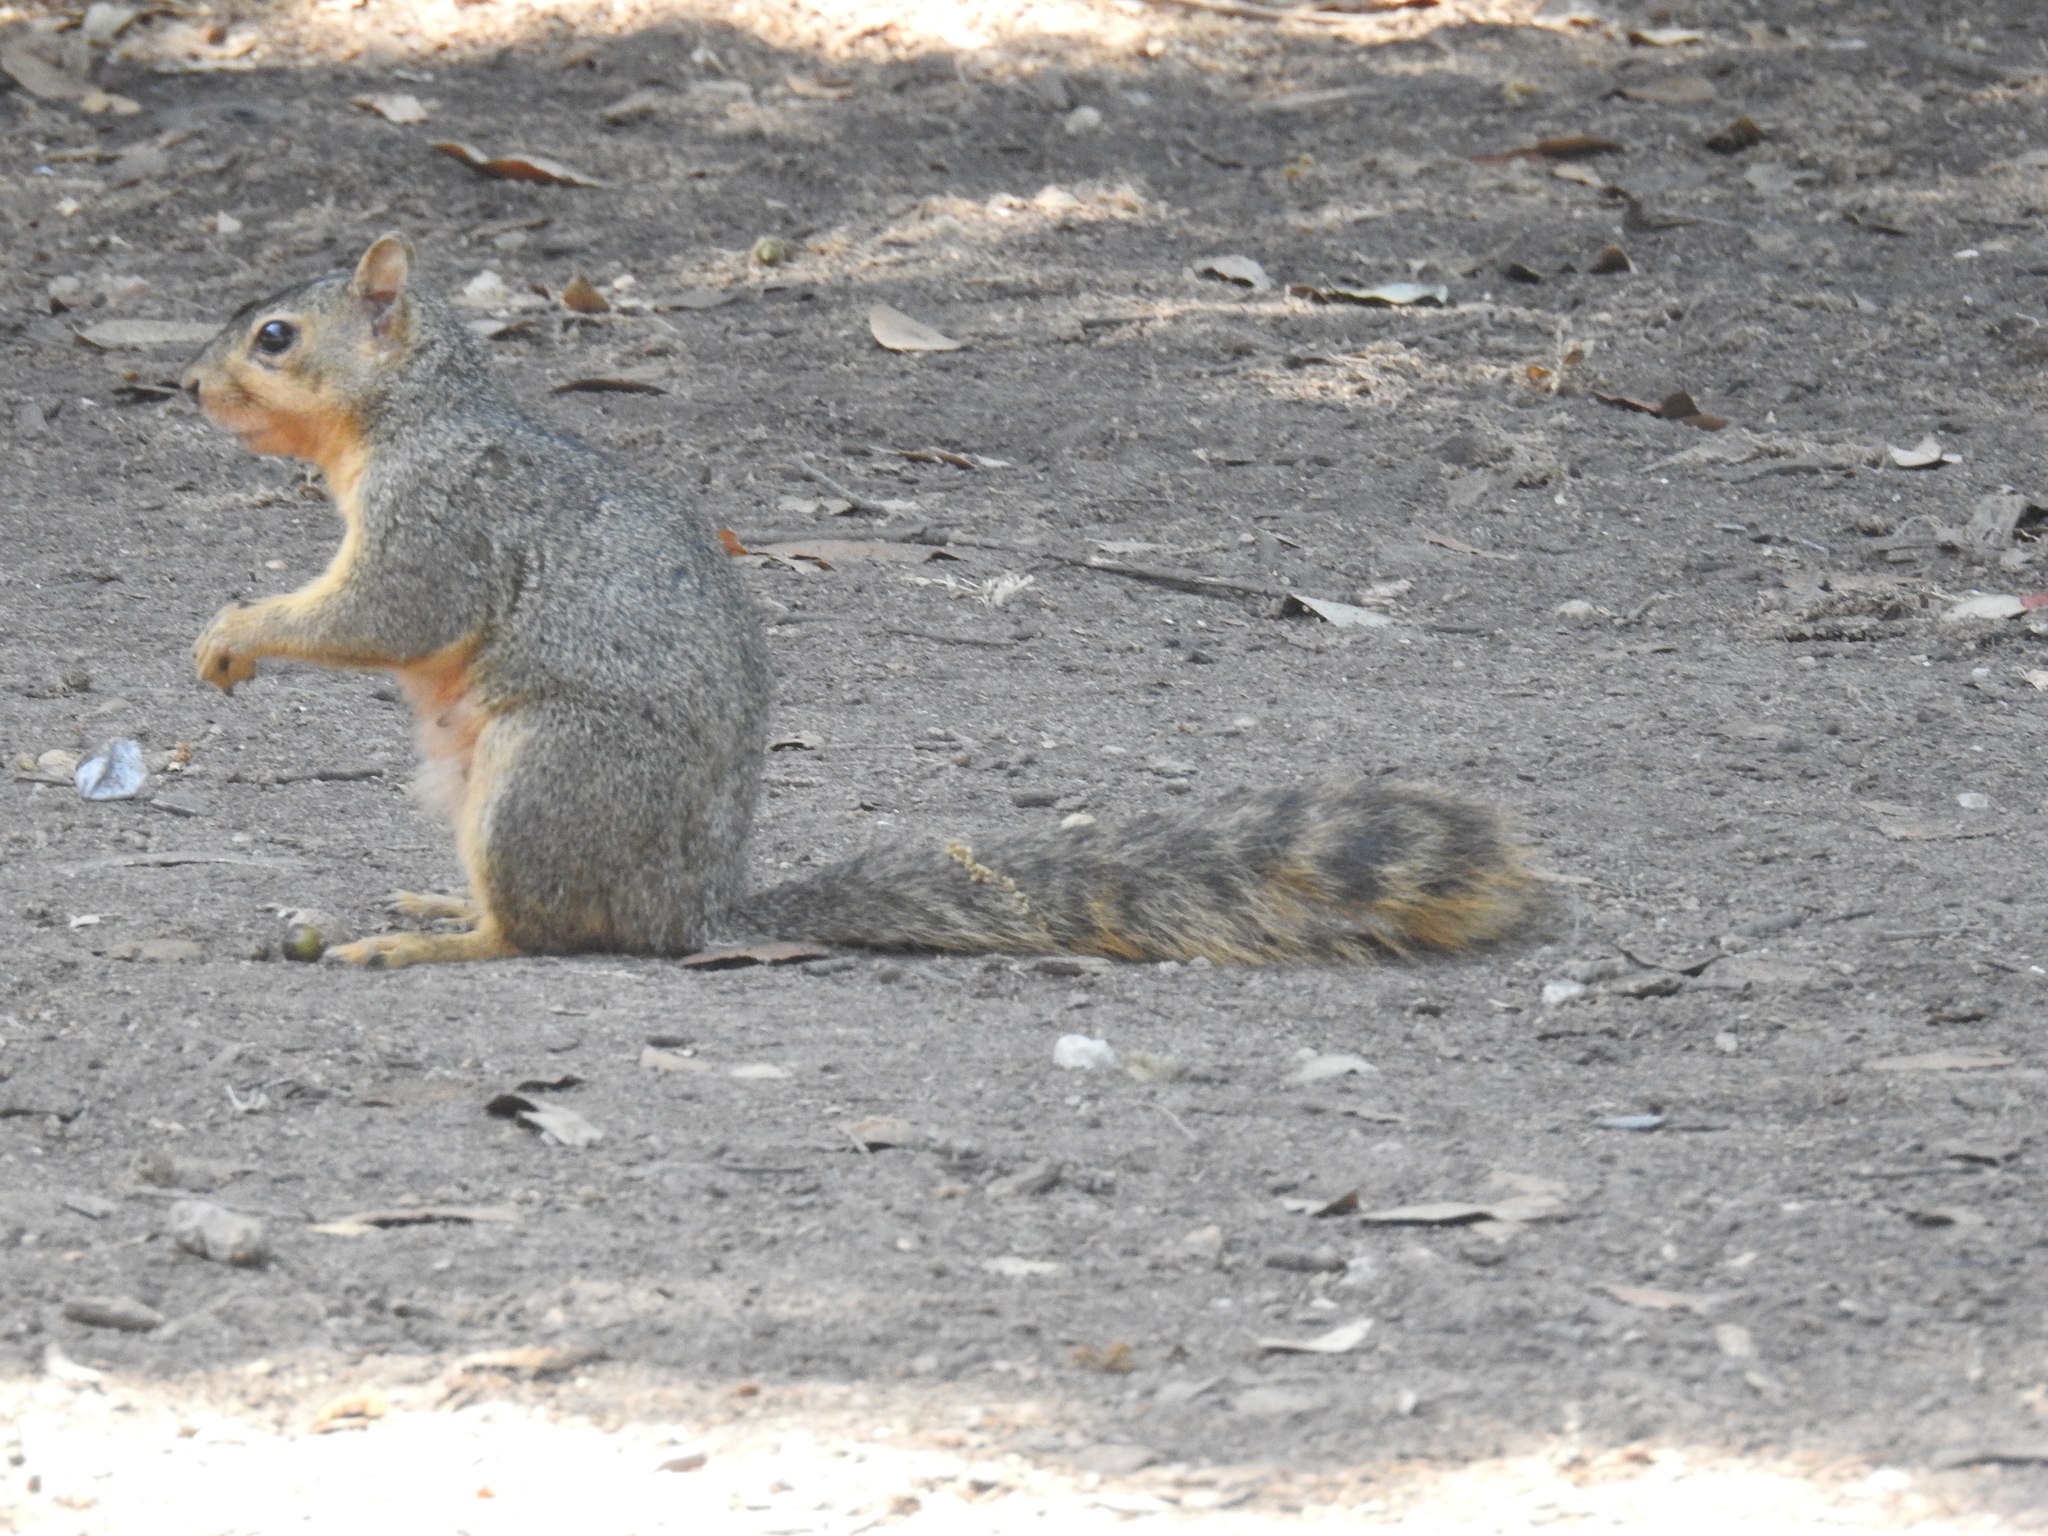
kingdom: Animalia
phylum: Chordata
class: Mammalia
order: Rodentia
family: Sciuridae
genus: Sciurus
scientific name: Sciurus niger
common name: Fox squirrel
